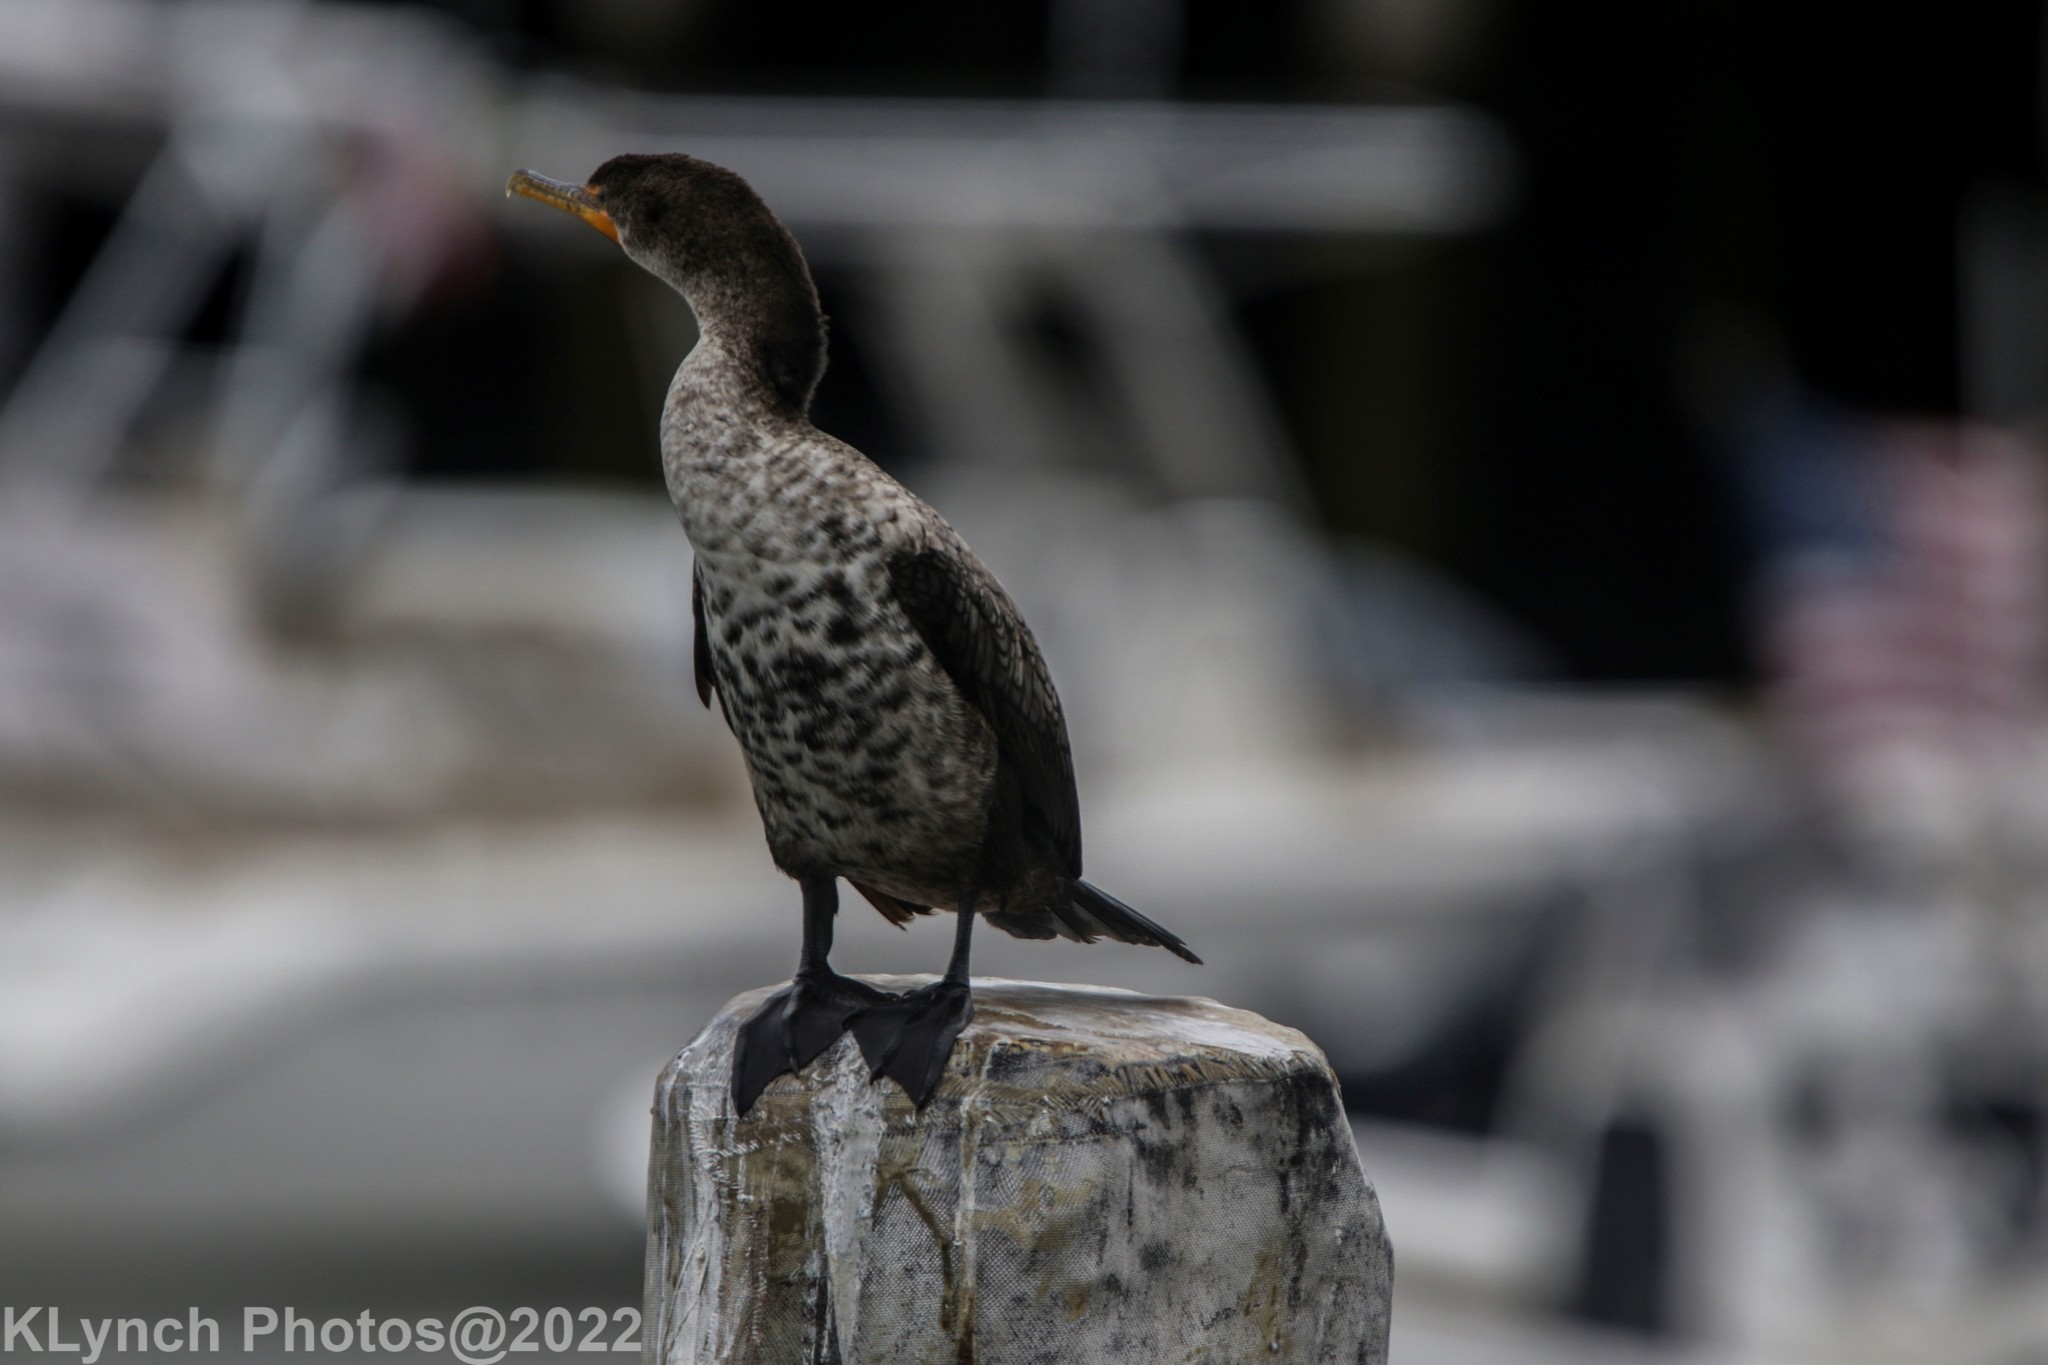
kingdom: Animalia
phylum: Chordata
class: Aves
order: Suliformes
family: Phalacrocoracidae
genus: Phalacrocorax
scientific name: Phalacrocorax auritus
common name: Double-crested cormorant
